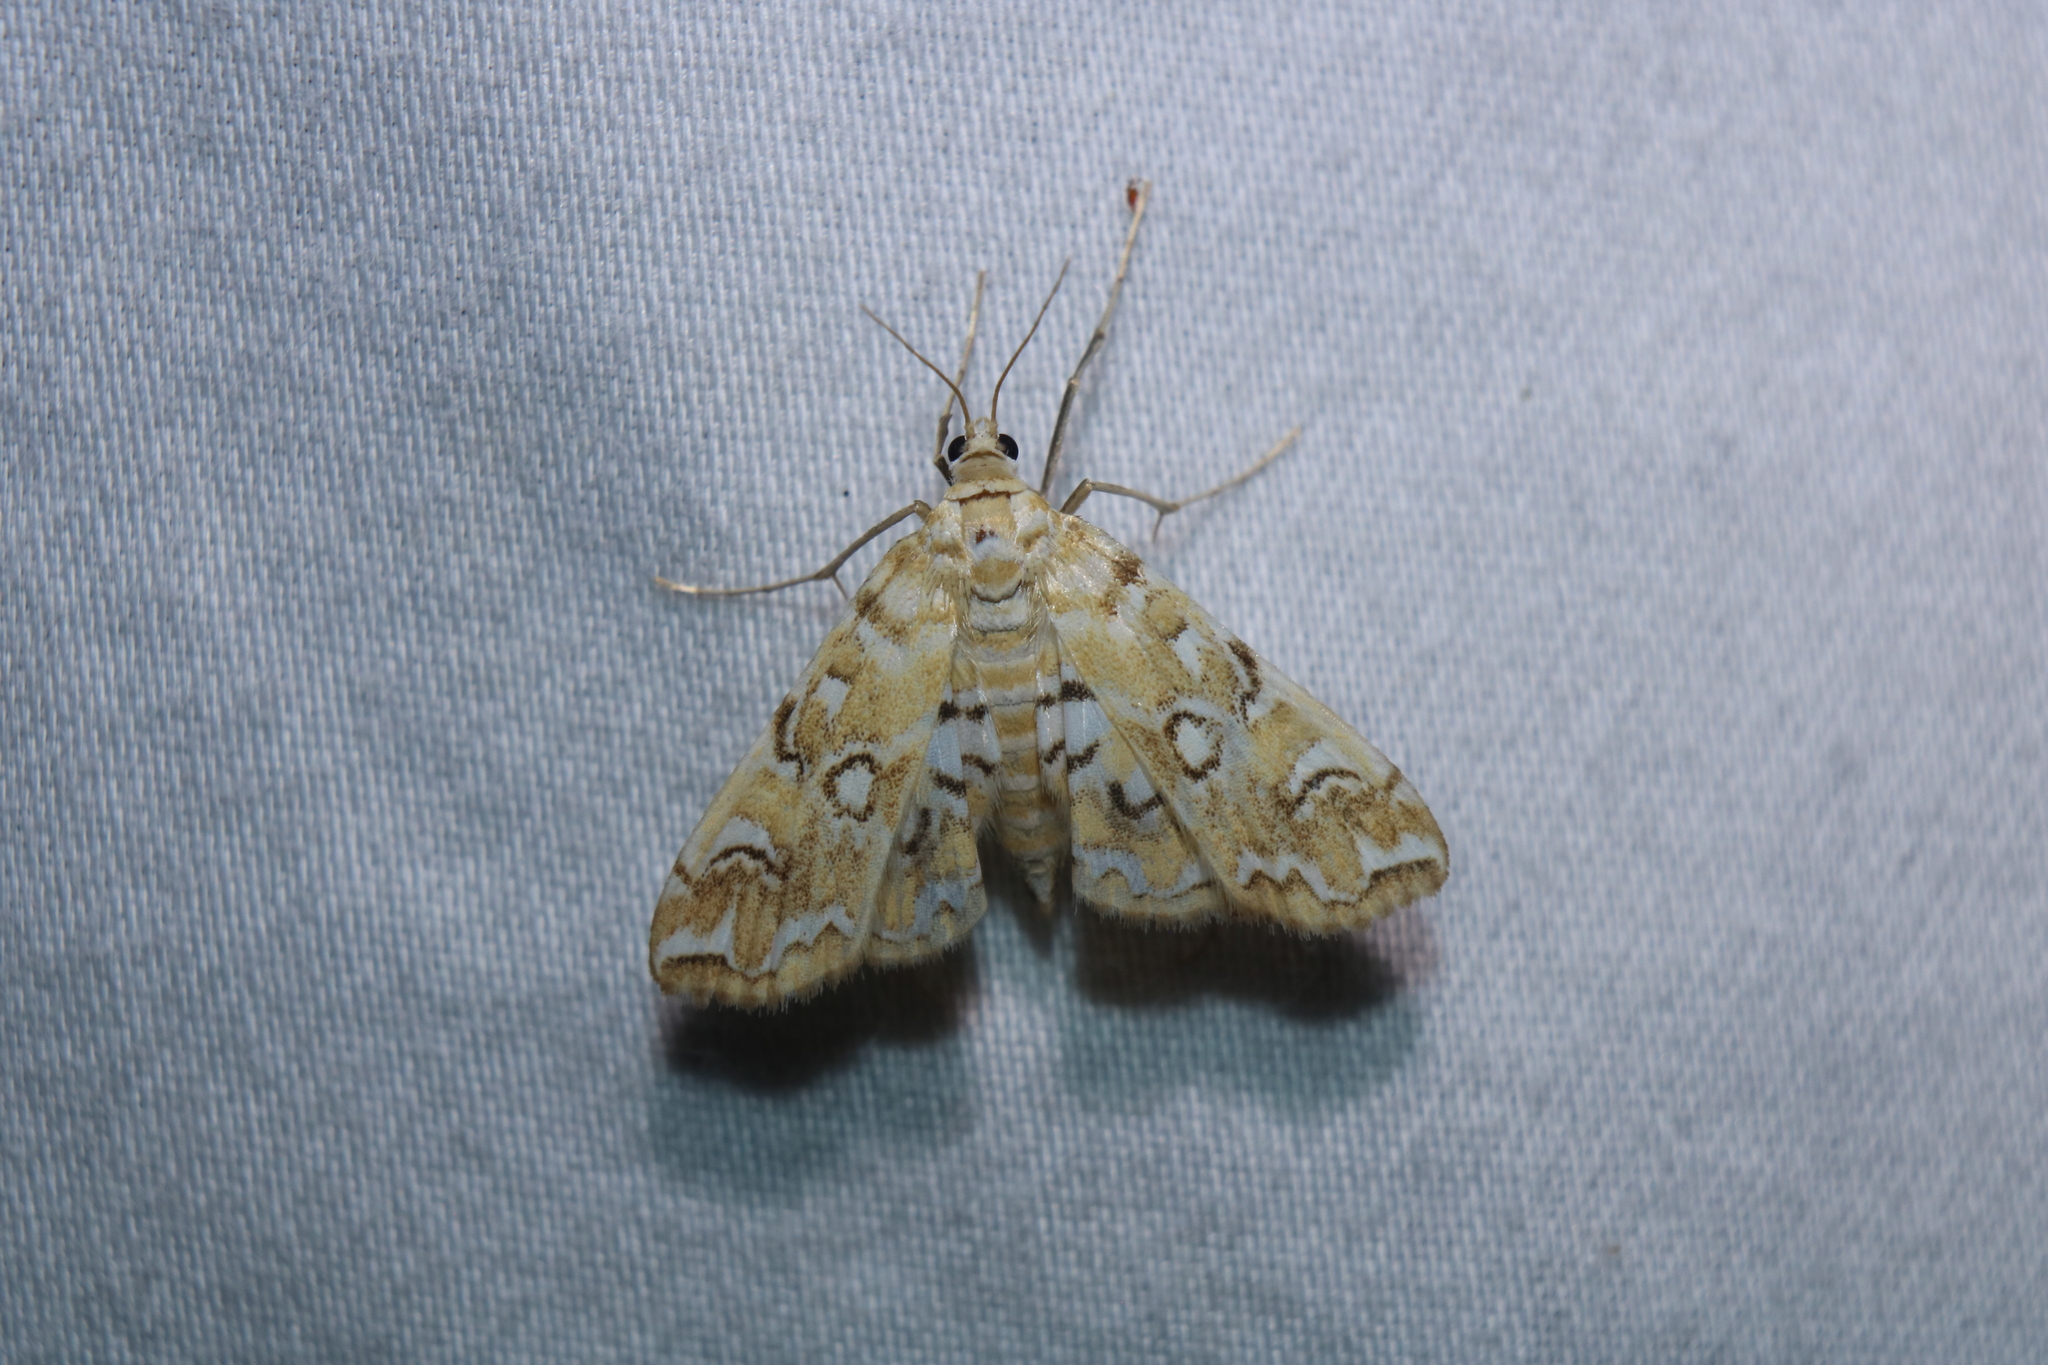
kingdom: Animalia
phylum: Arthropoda
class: Insecta
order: Lepidoptera
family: Crambidae
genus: Elophila
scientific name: Elophila icciusalis
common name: Pondside pyralid moth
